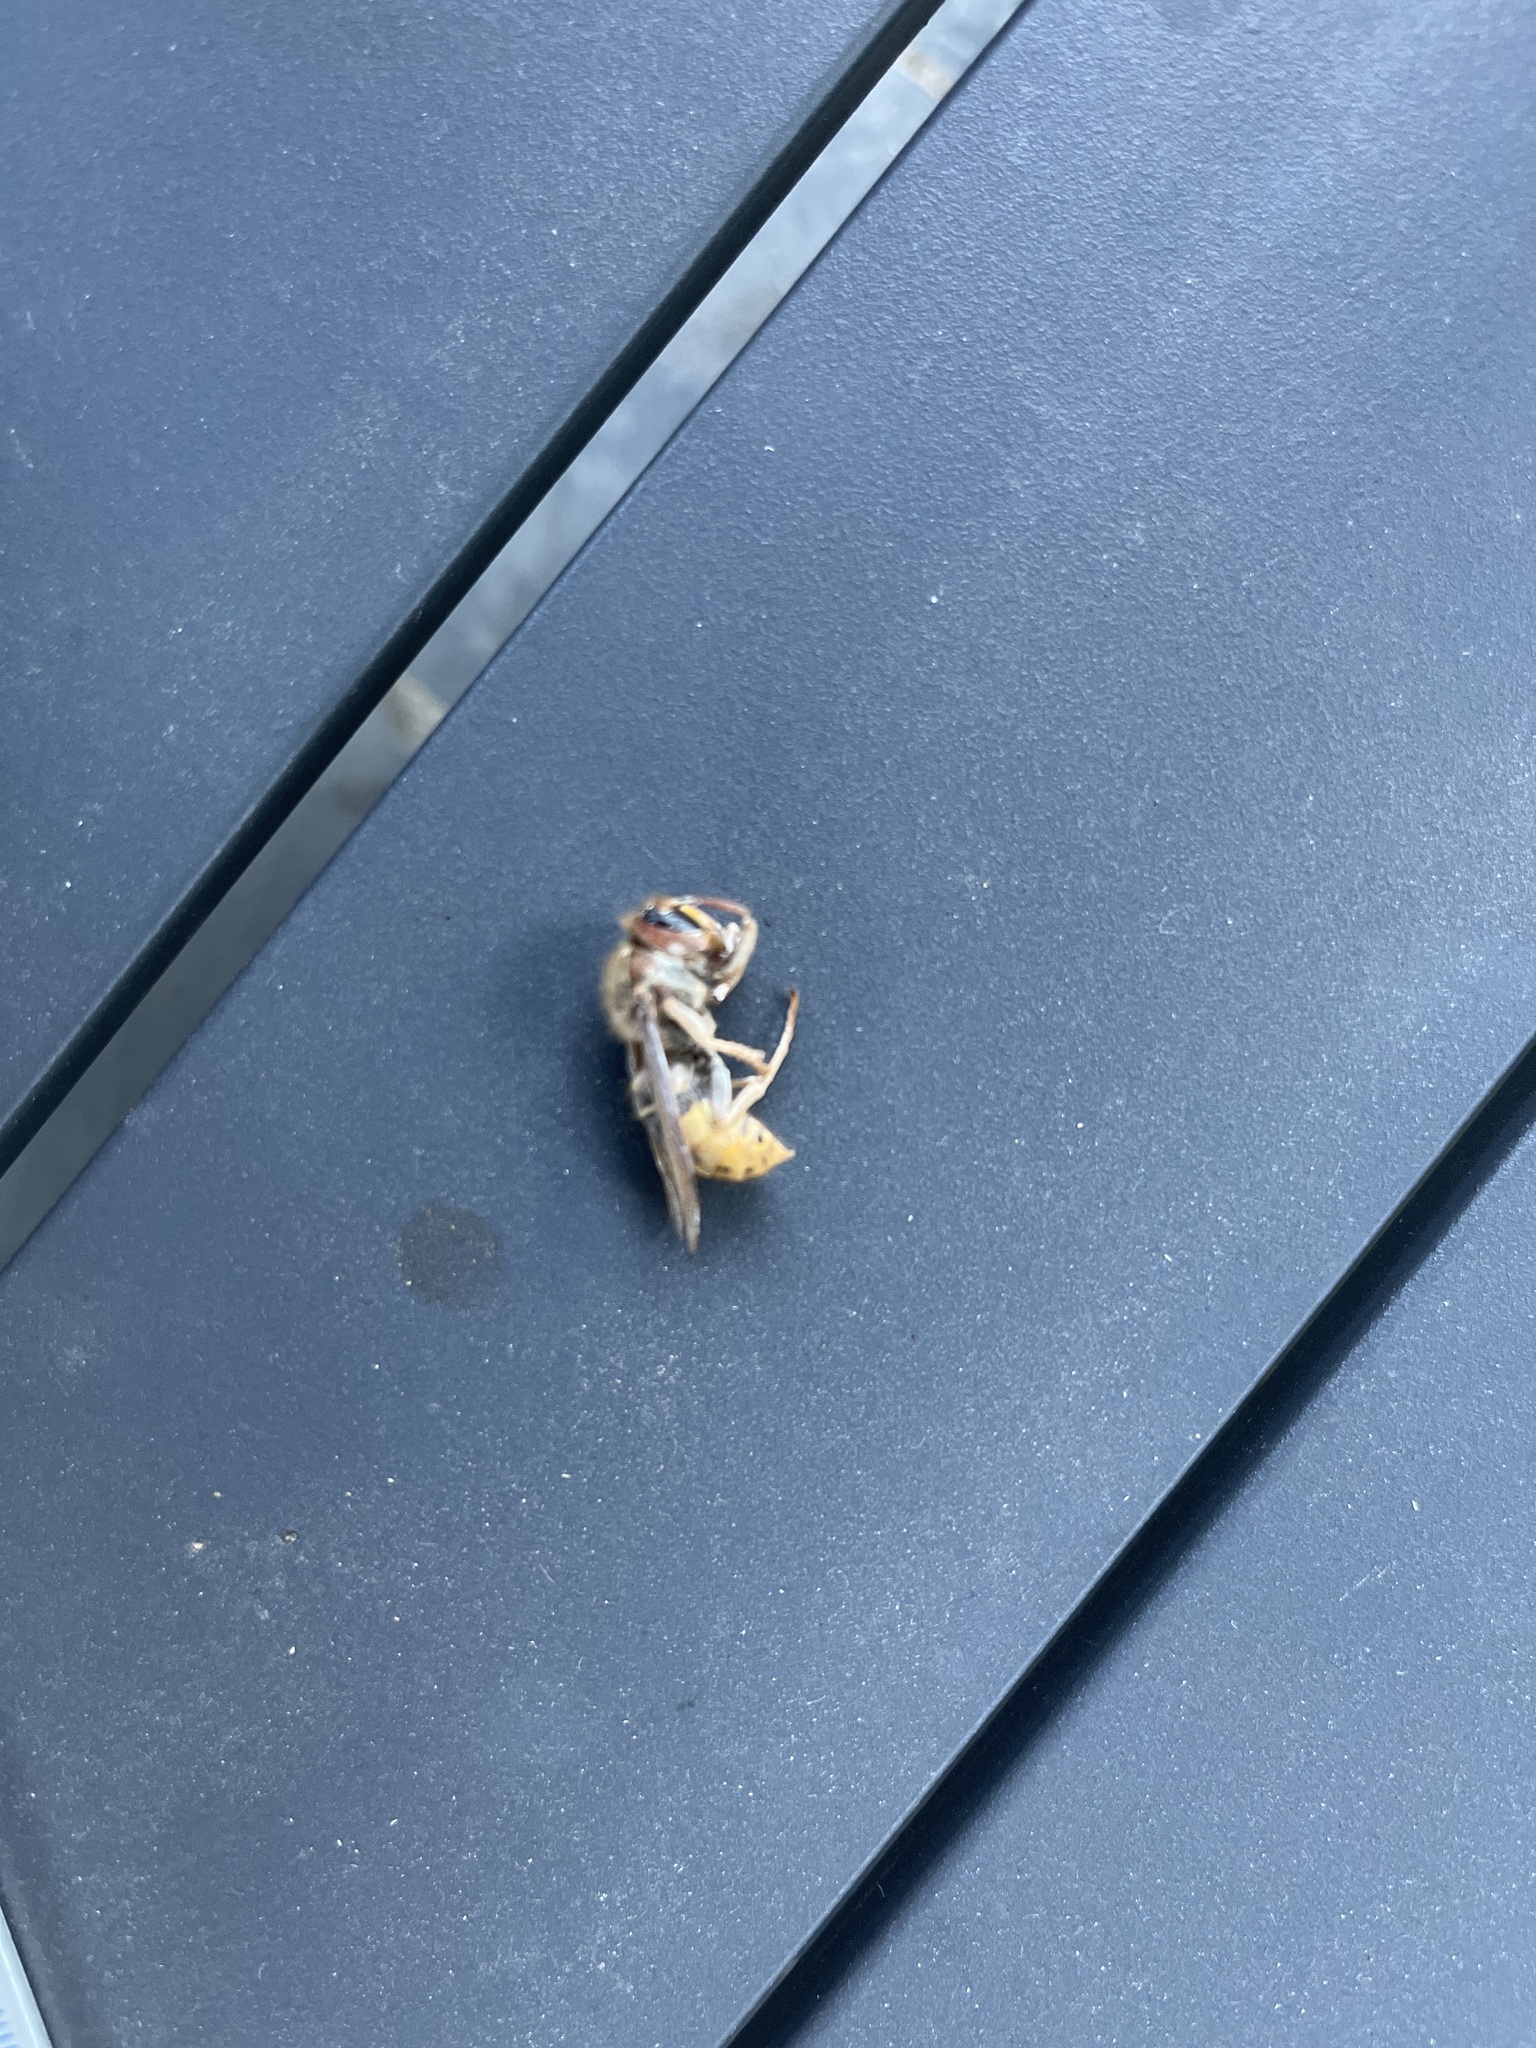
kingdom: Animalia
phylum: Arthropoda
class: Insecta
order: Hymenoptera
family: Vespidae
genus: Vespa
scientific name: Vespa crabro
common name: Hornet
